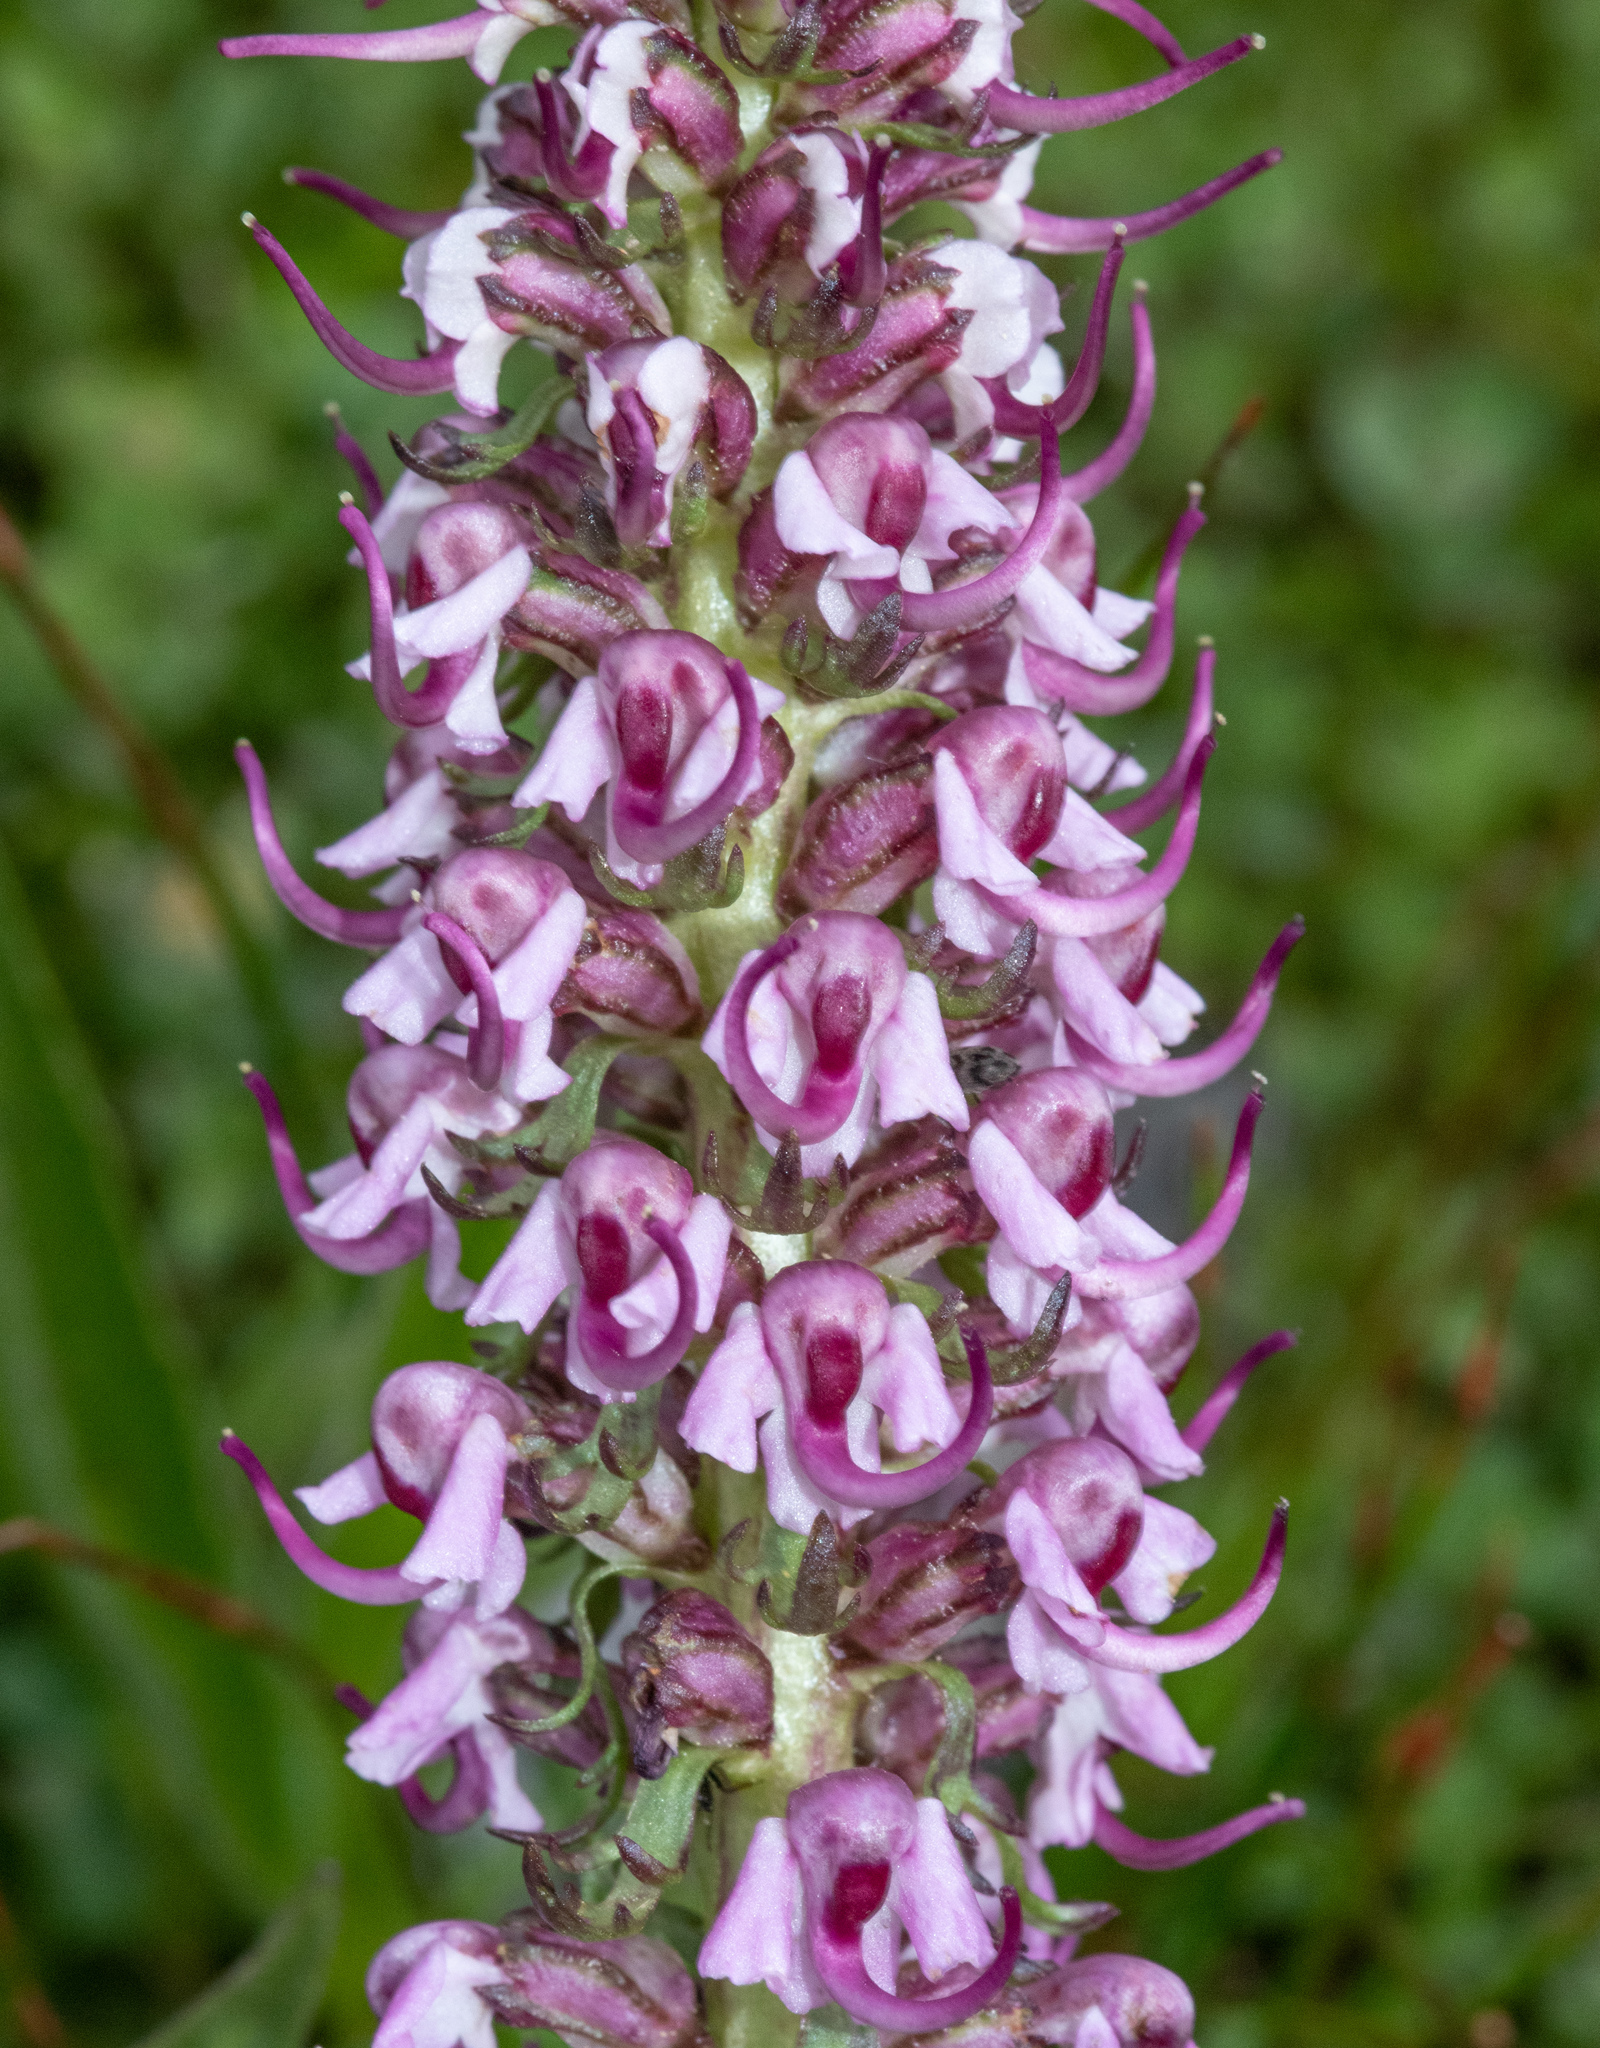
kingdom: Plantae
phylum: Tracheophyta
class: Magnoliopsida
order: Lamiales
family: Orobanchaceae
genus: Pedicularis
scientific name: Pedicularis groenlandica
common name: Elephant's-head
